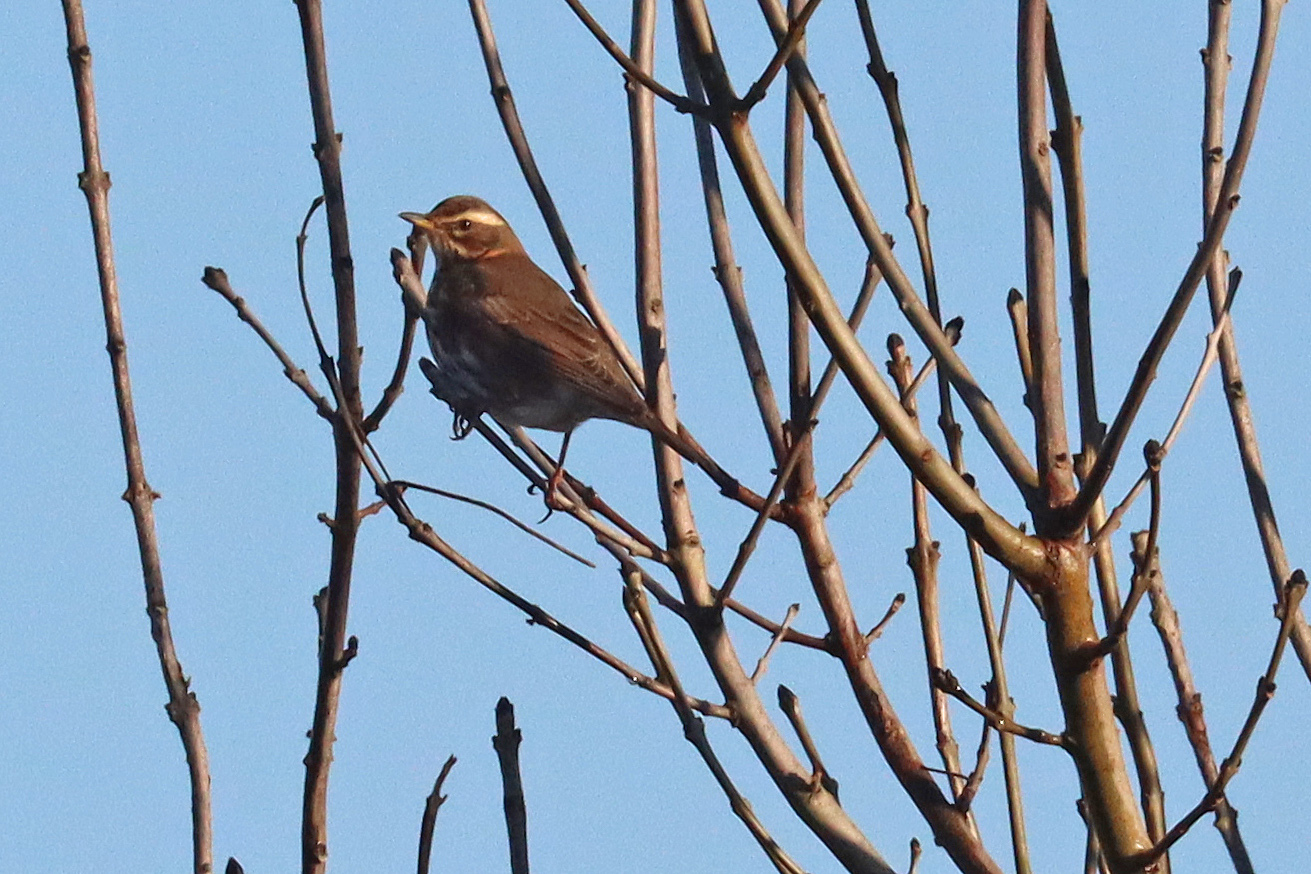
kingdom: Animalia
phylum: Chordata
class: Aves
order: Passeriformes
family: Turdidae
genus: Turdus
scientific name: Turdus iliacus
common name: Redwing
